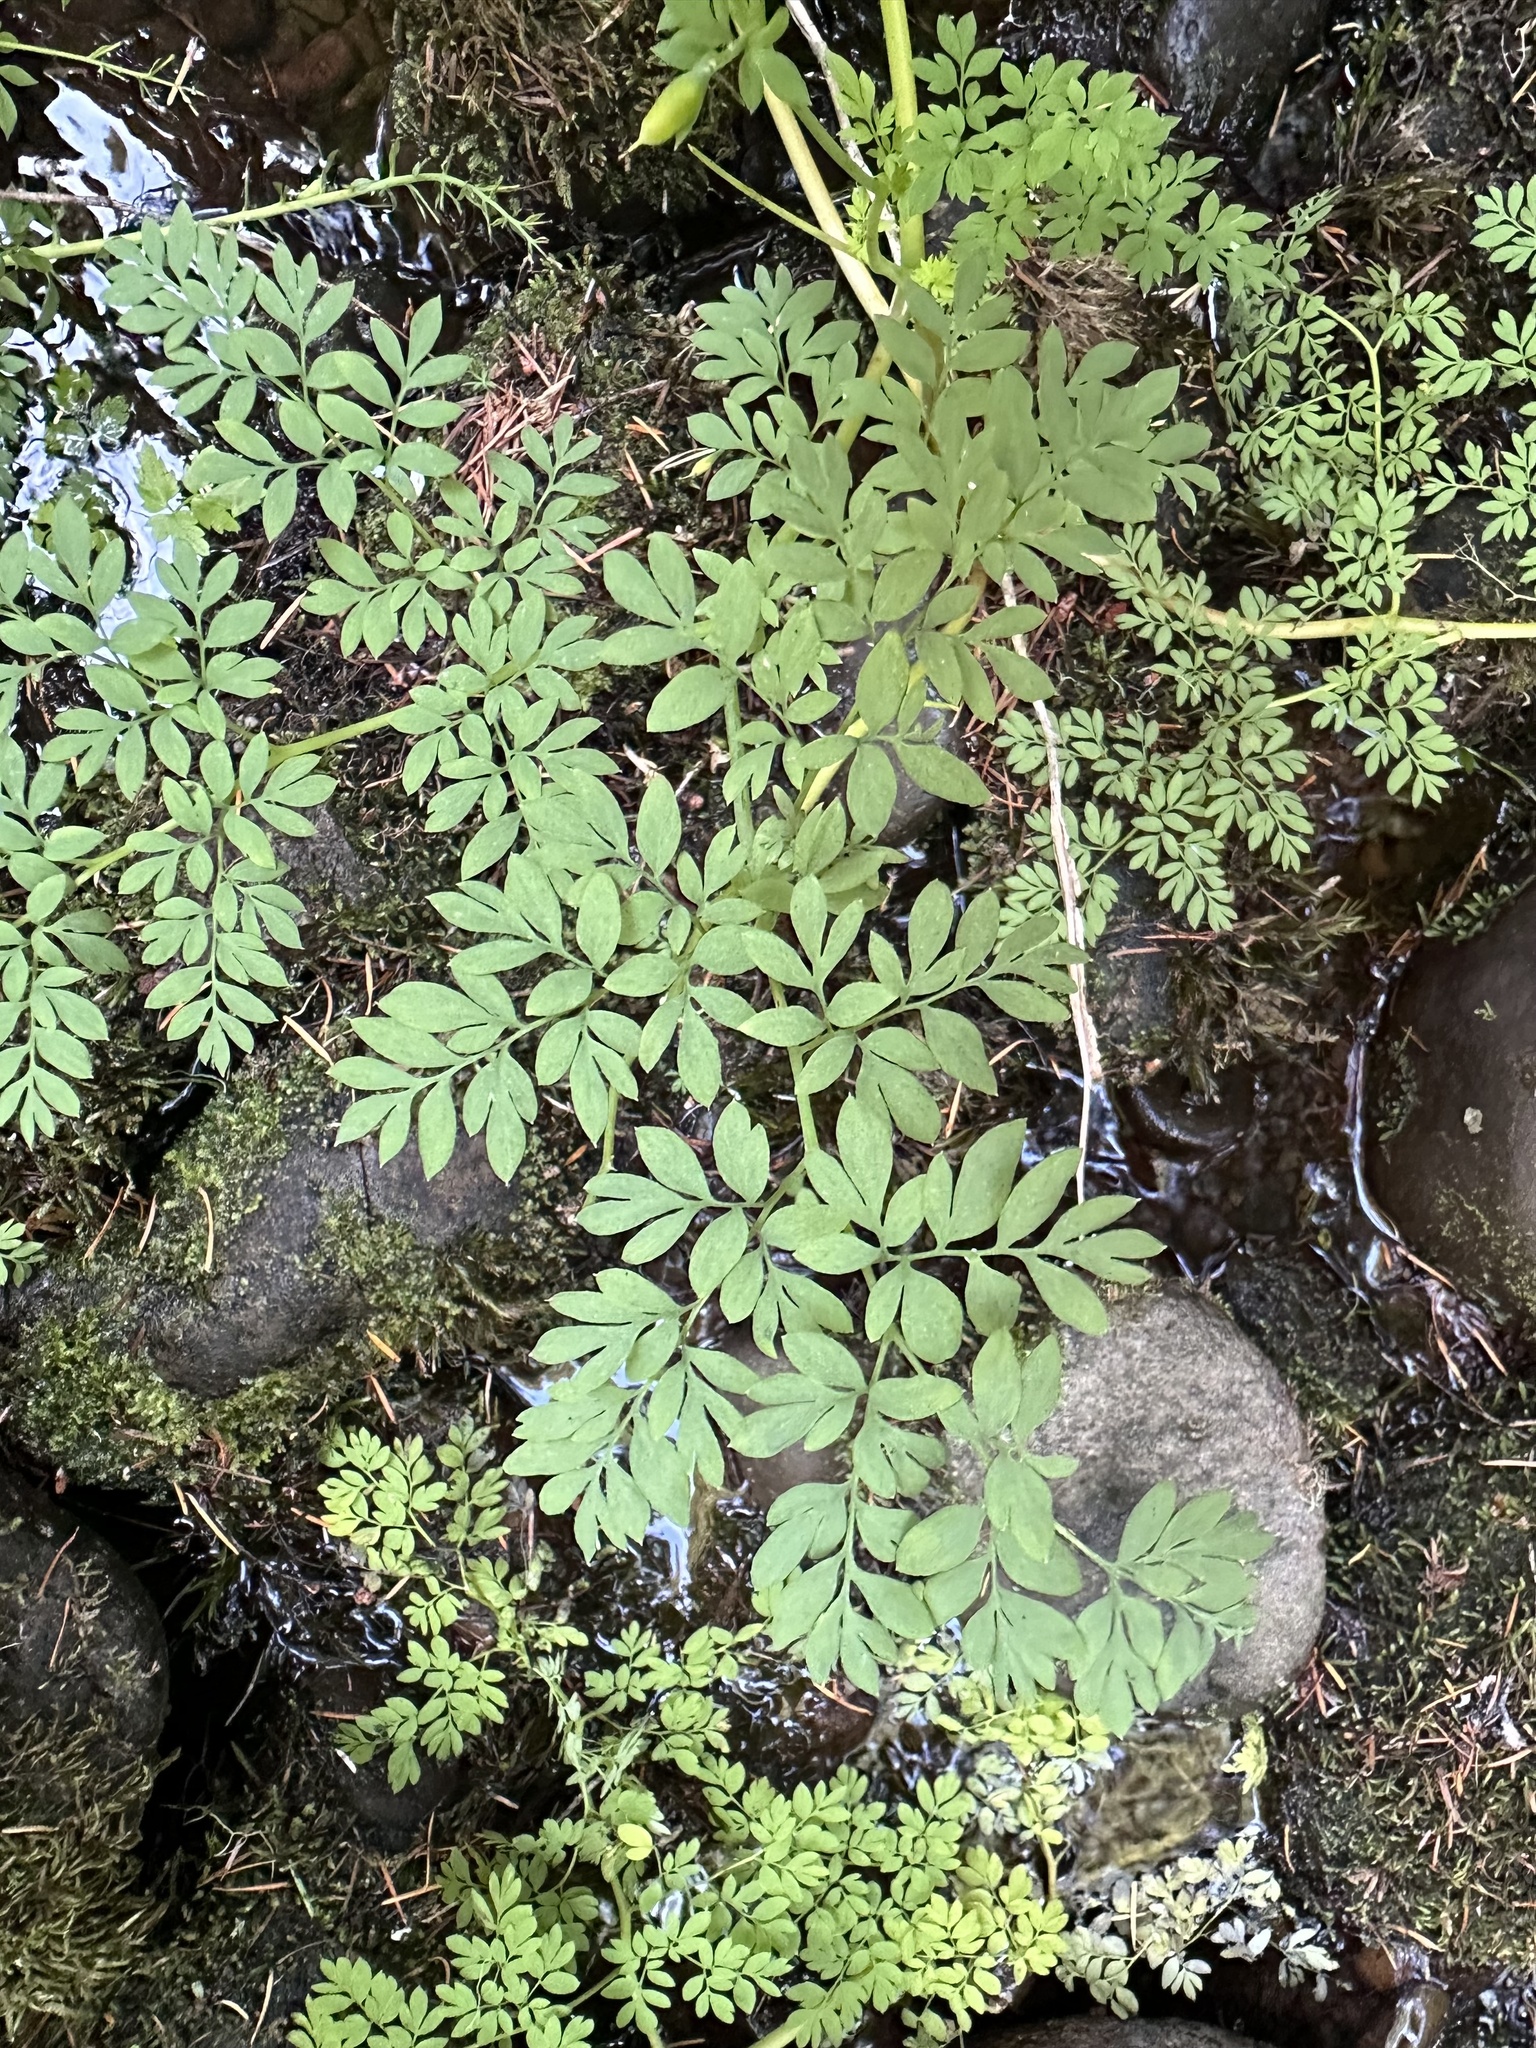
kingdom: Plantae
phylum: Tracheophyta
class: Magnoliopsida
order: Ranunculales
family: Papaveraceae
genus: Corydalis
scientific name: Corydalis caseana
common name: Fitweed
